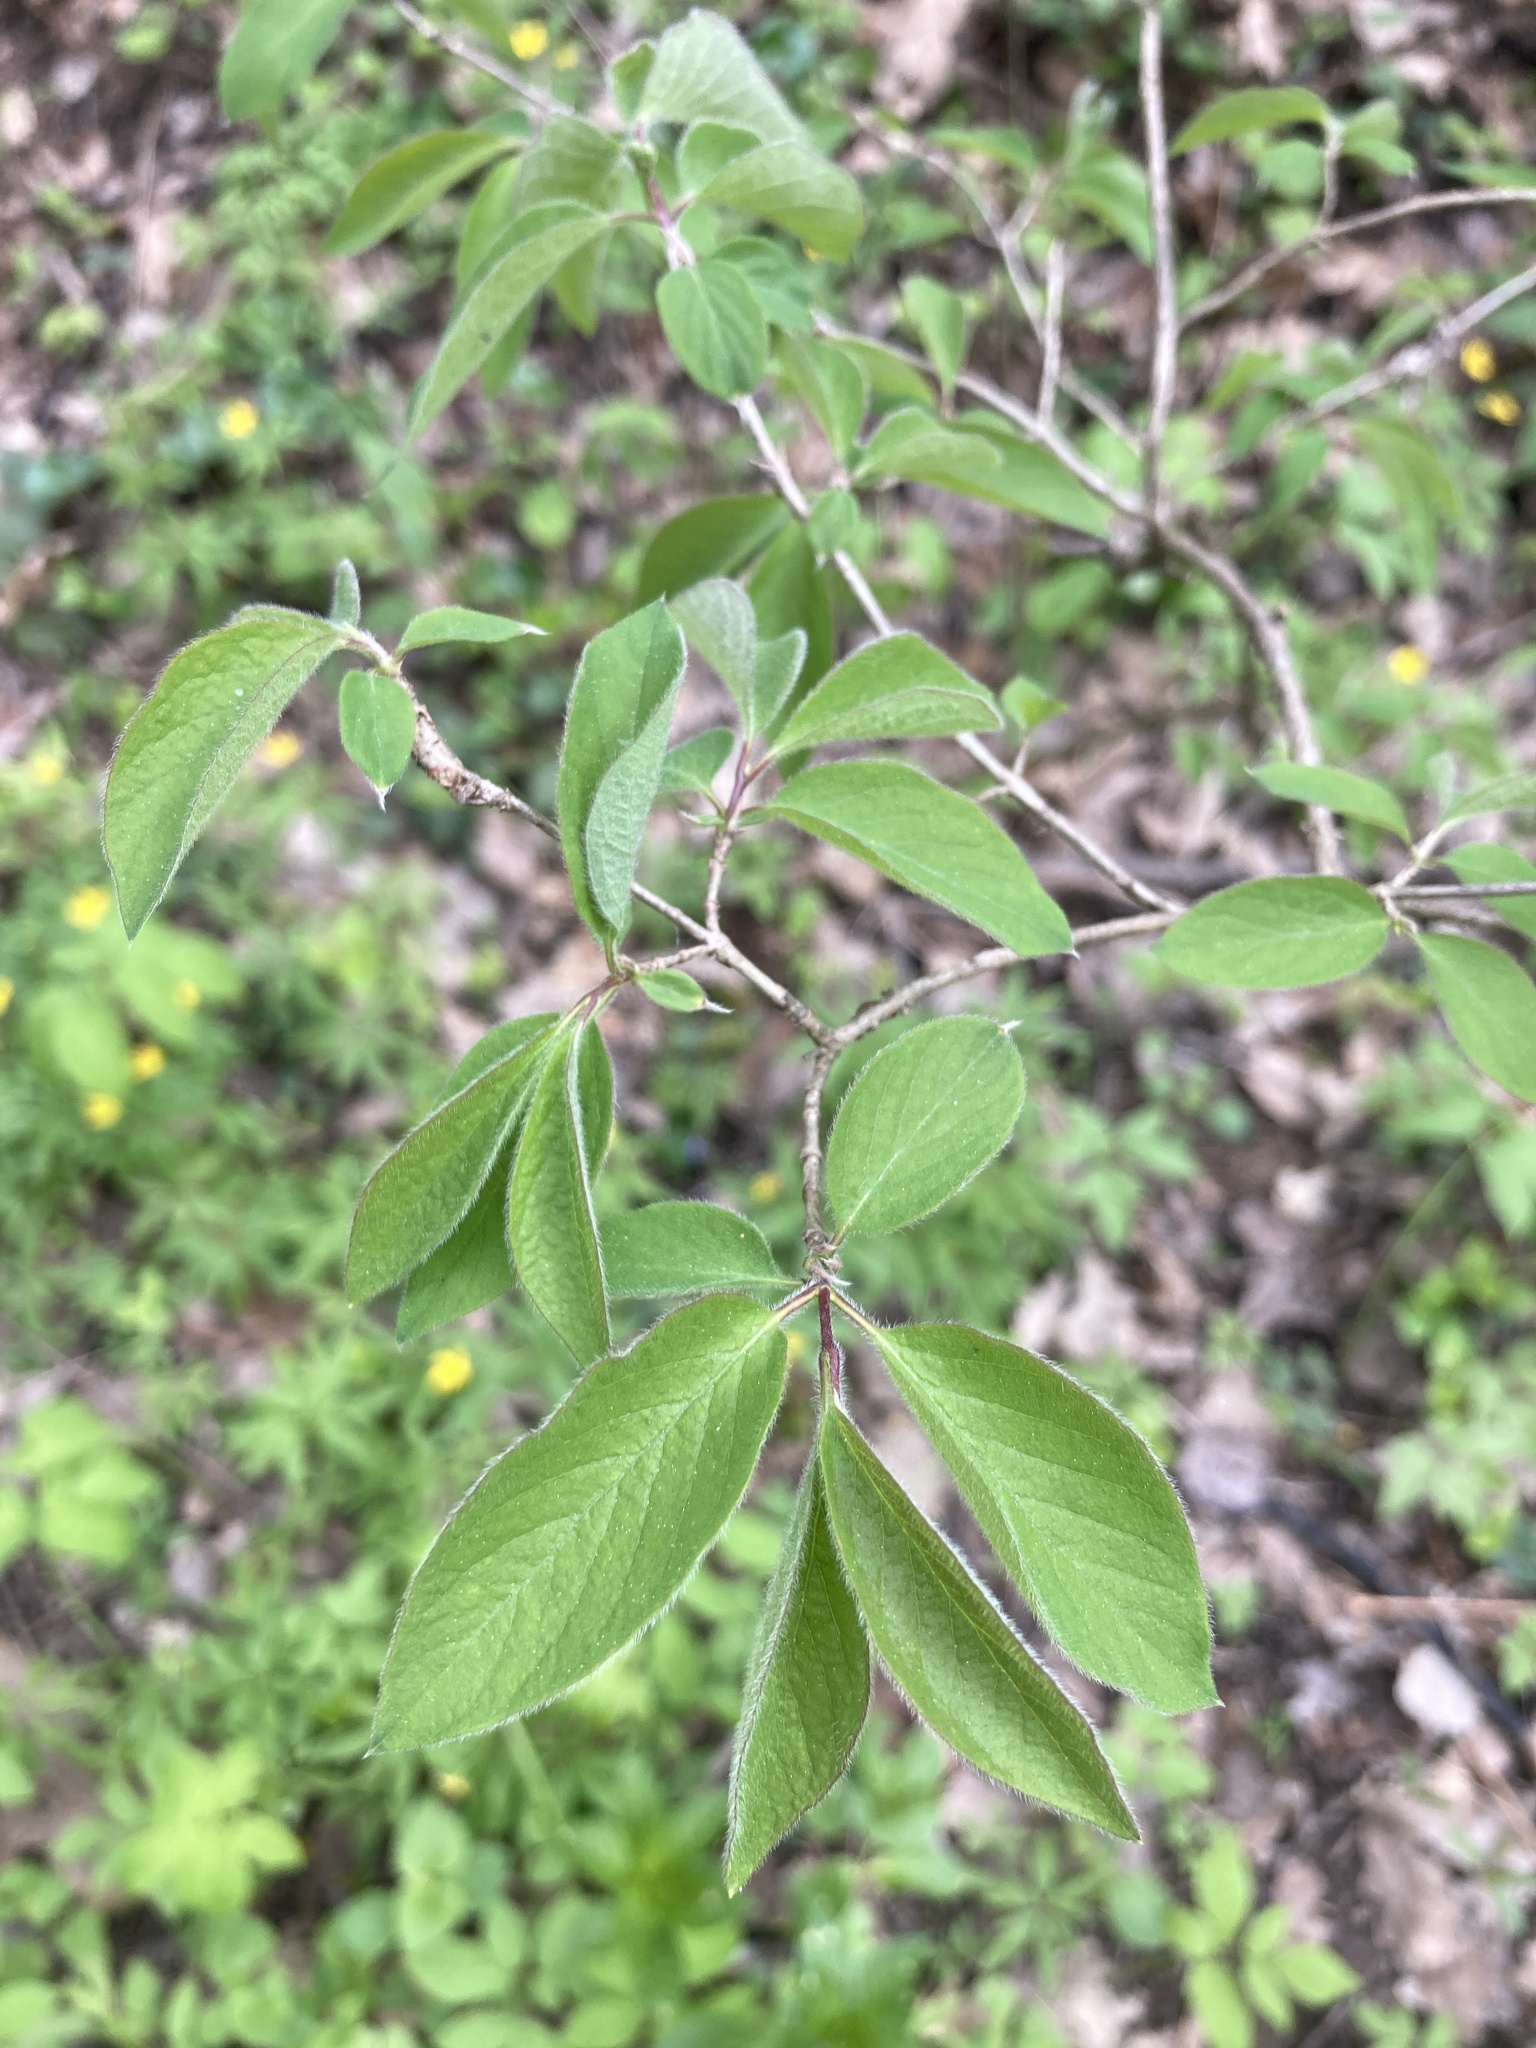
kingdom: Plantae
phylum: Tracheophyta
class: Magnoliopsida
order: Dipsacales
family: Caprifoliaceae
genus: Lonicera
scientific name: Lonicera xylosteum
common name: Fly honeysuckle
